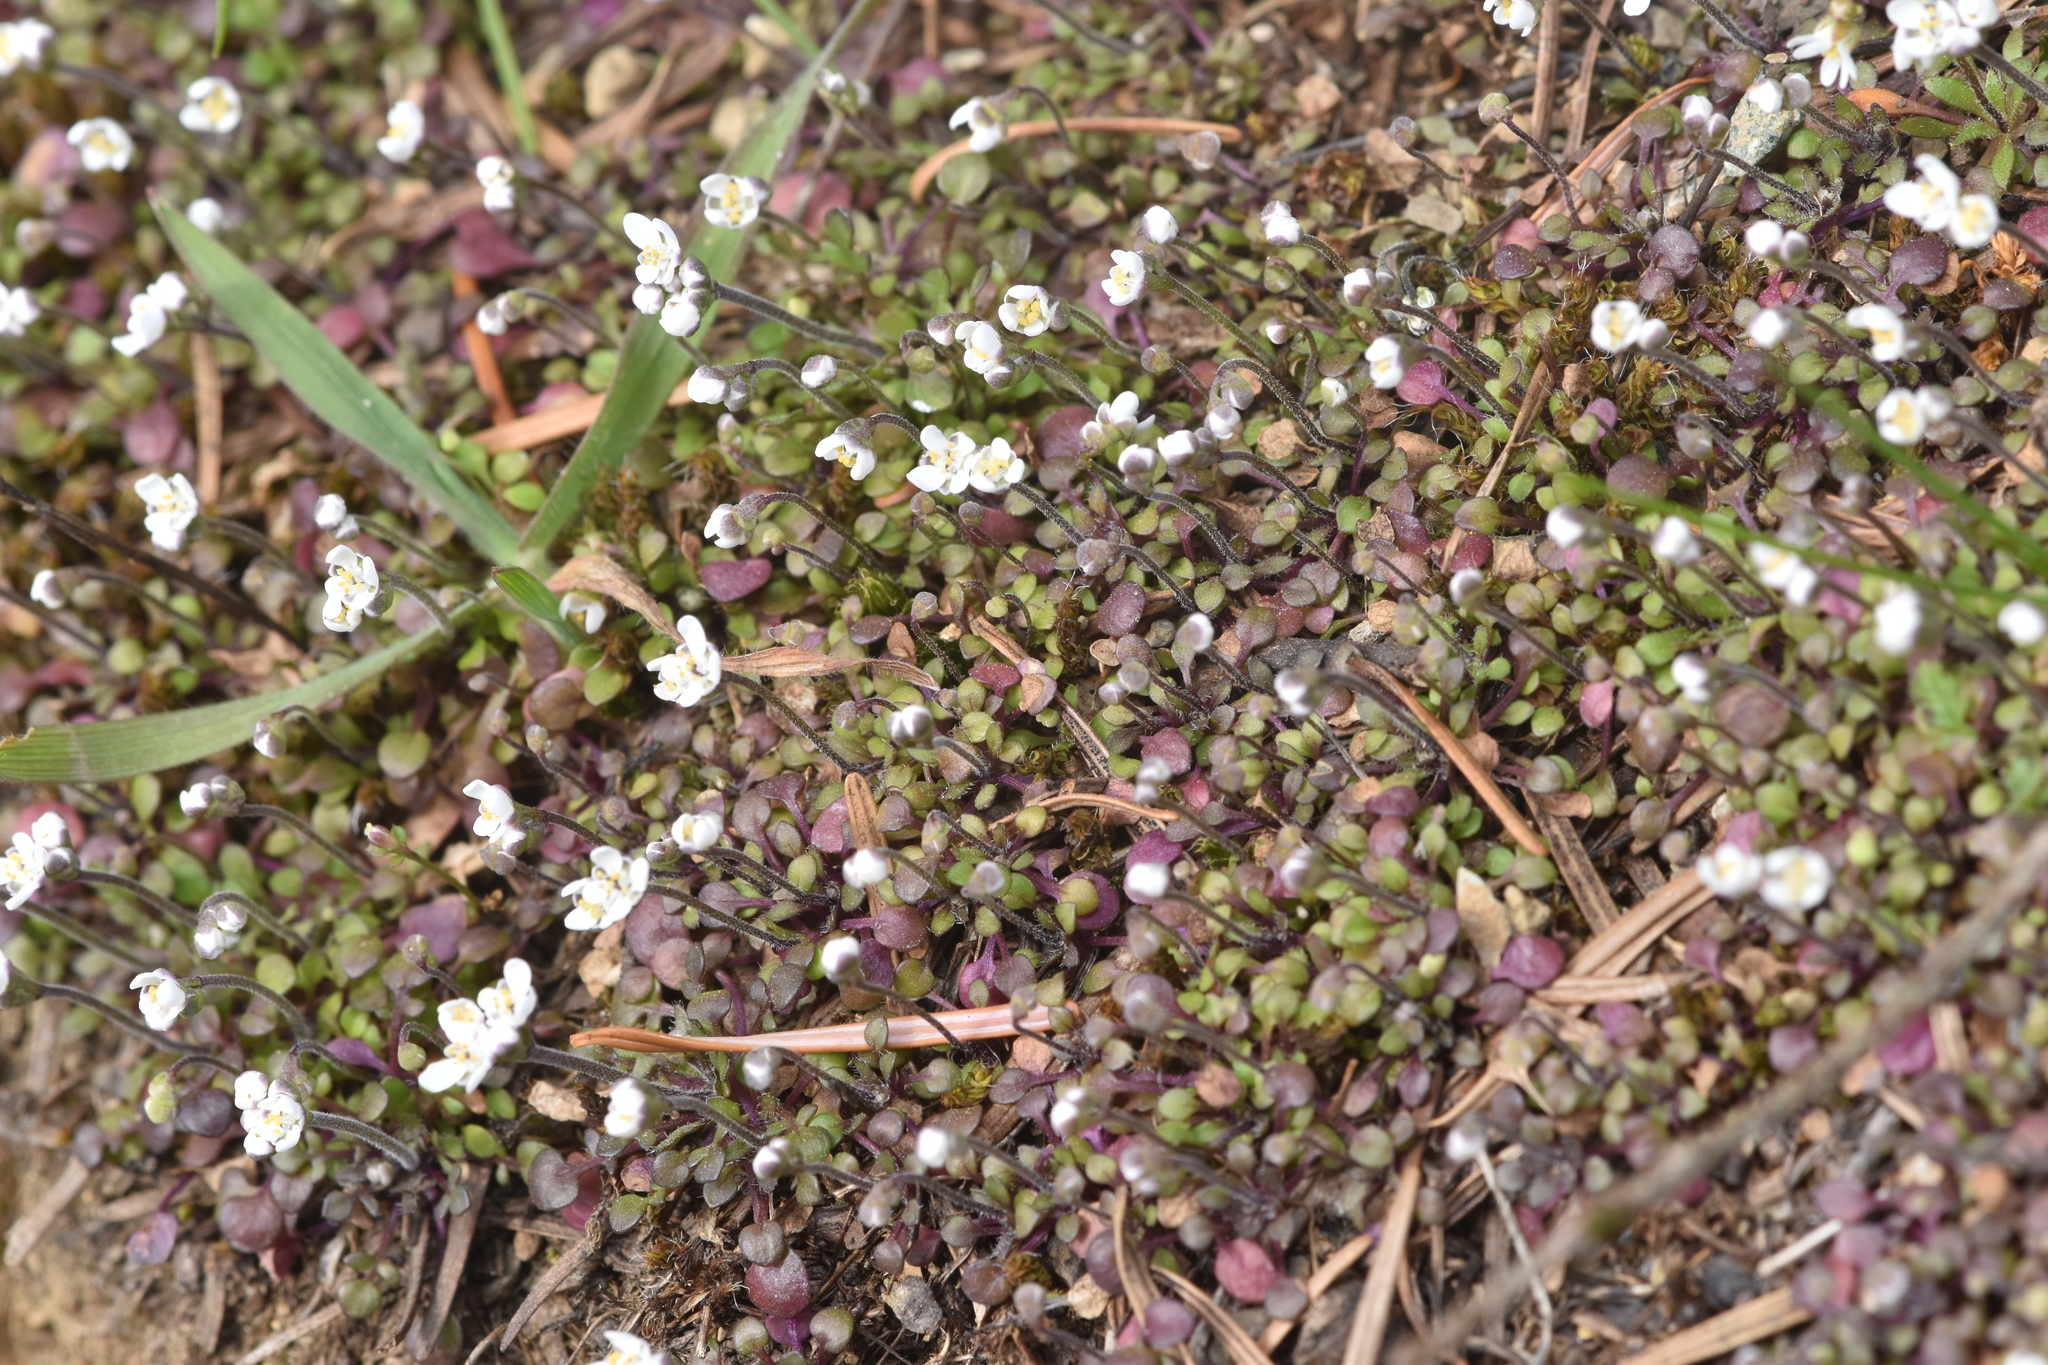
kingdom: Plantae
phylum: Tracheophyta
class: Magnoliopsida
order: Brassicales
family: Brassicaceae
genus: Teesdalia
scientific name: Teesdalia nudicaulis
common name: Shepherd's cress
